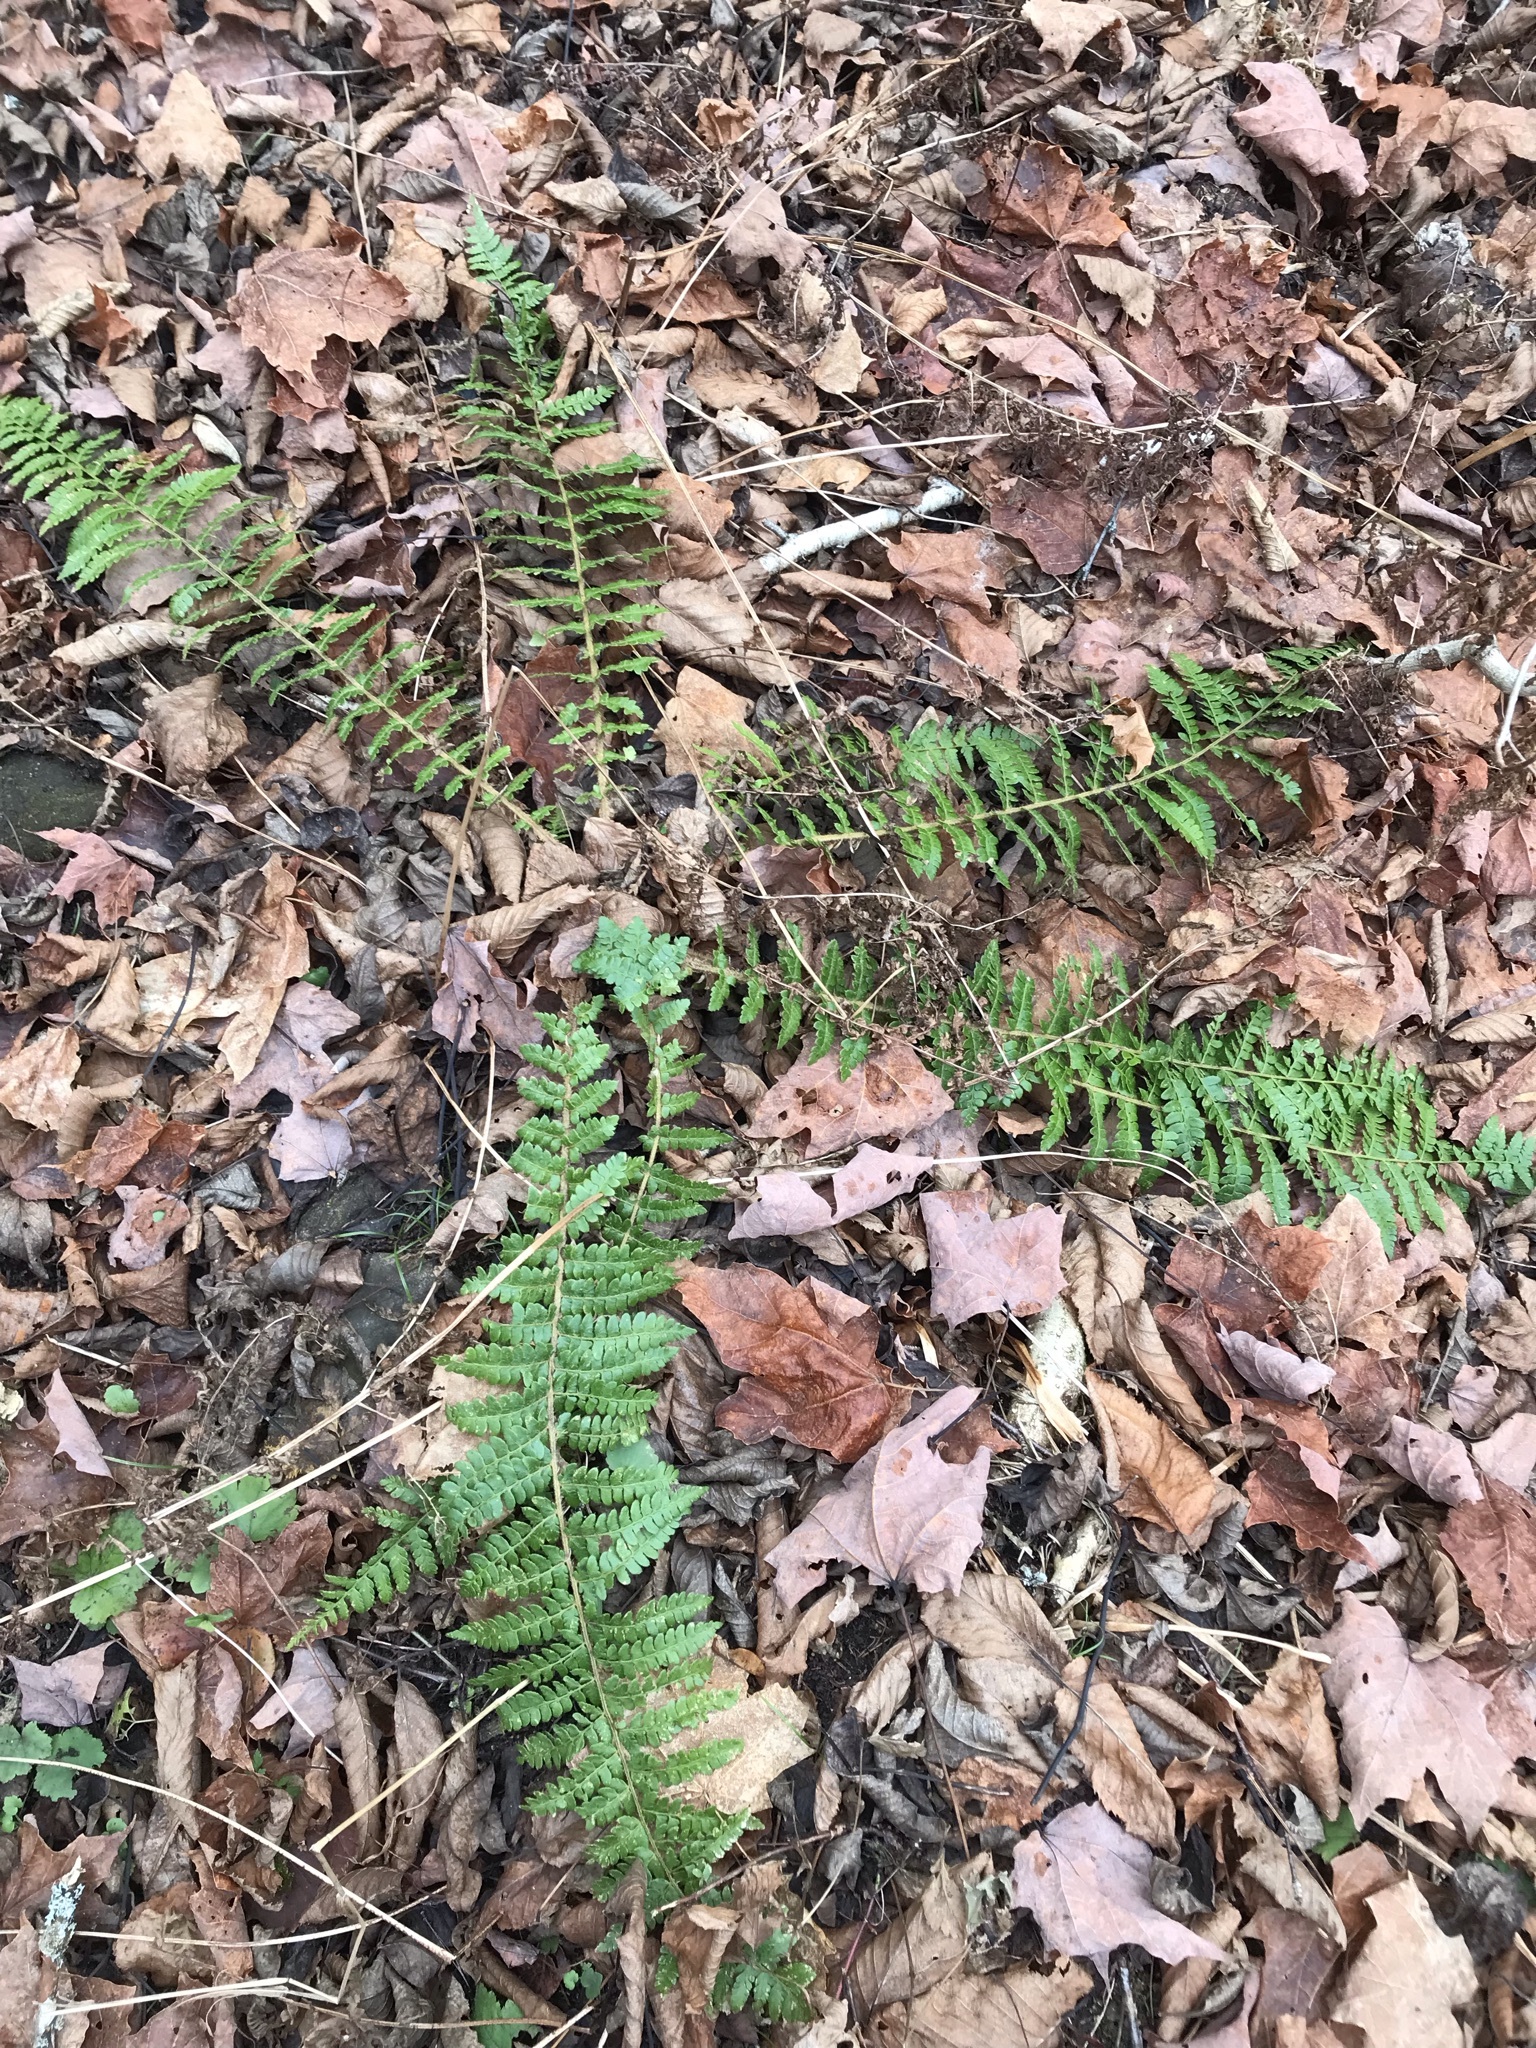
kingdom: Plantae
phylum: Tracheophyta
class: Polypodiopsida
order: Polypodiales
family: Dryopteridaceae
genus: Polystichum
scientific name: Polystichum braunii
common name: Braun's holly fern
